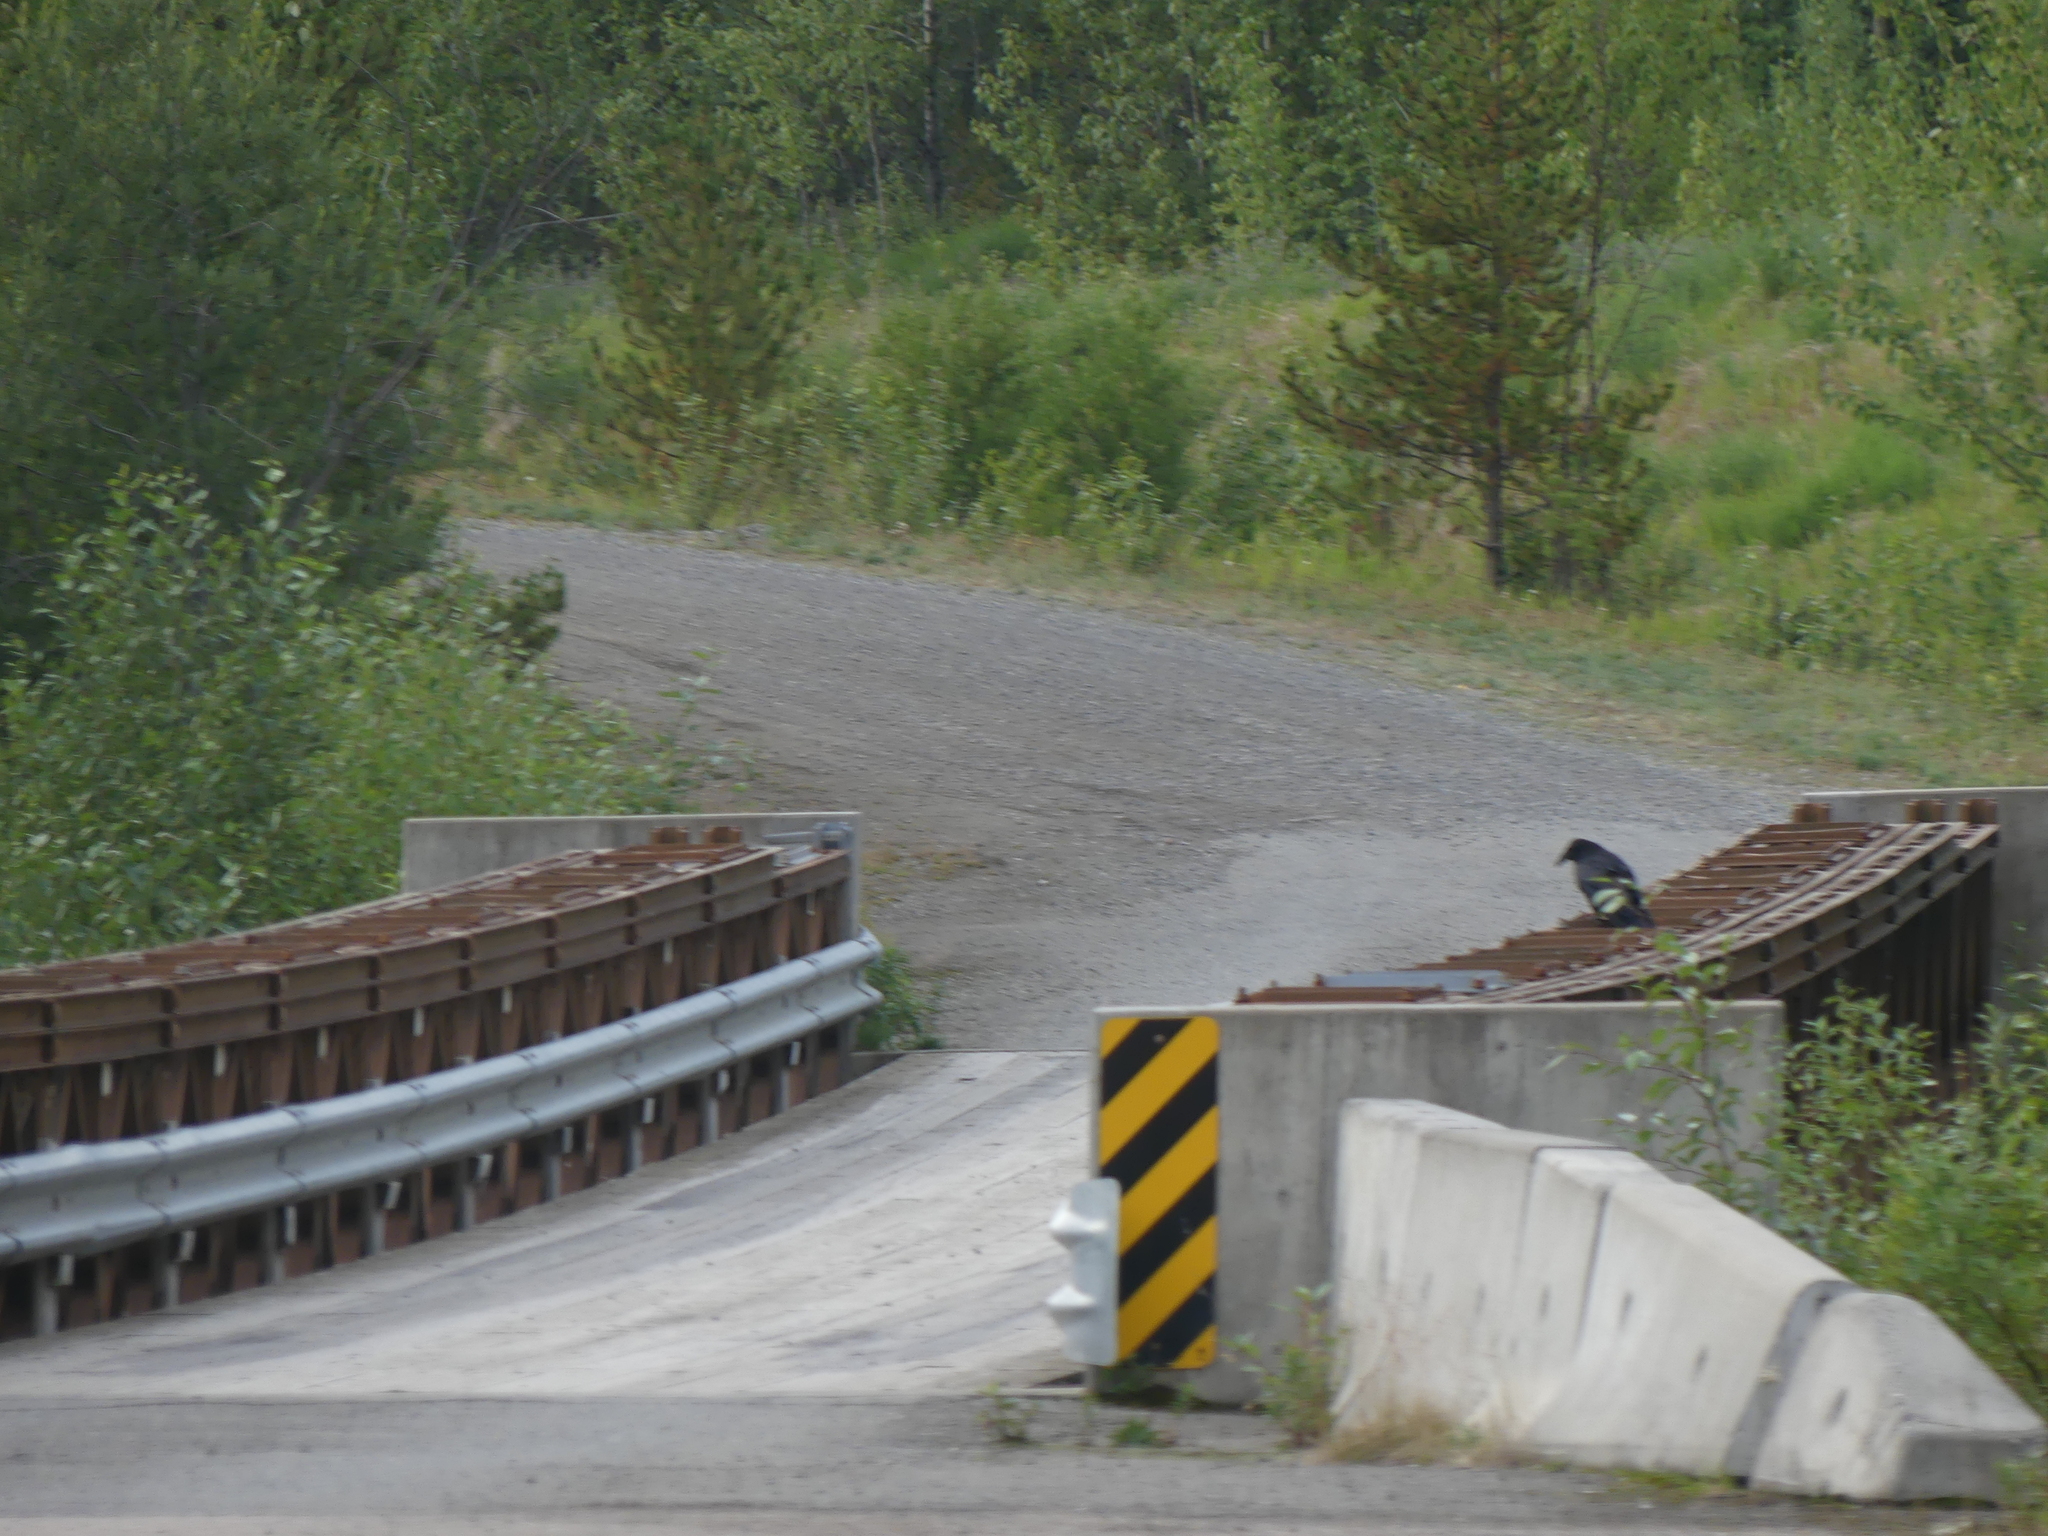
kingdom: Animalia
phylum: Chordata
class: Aves
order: Passeriformes
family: Corvidae
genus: Corvus
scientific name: Corvus corax
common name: Common raven
